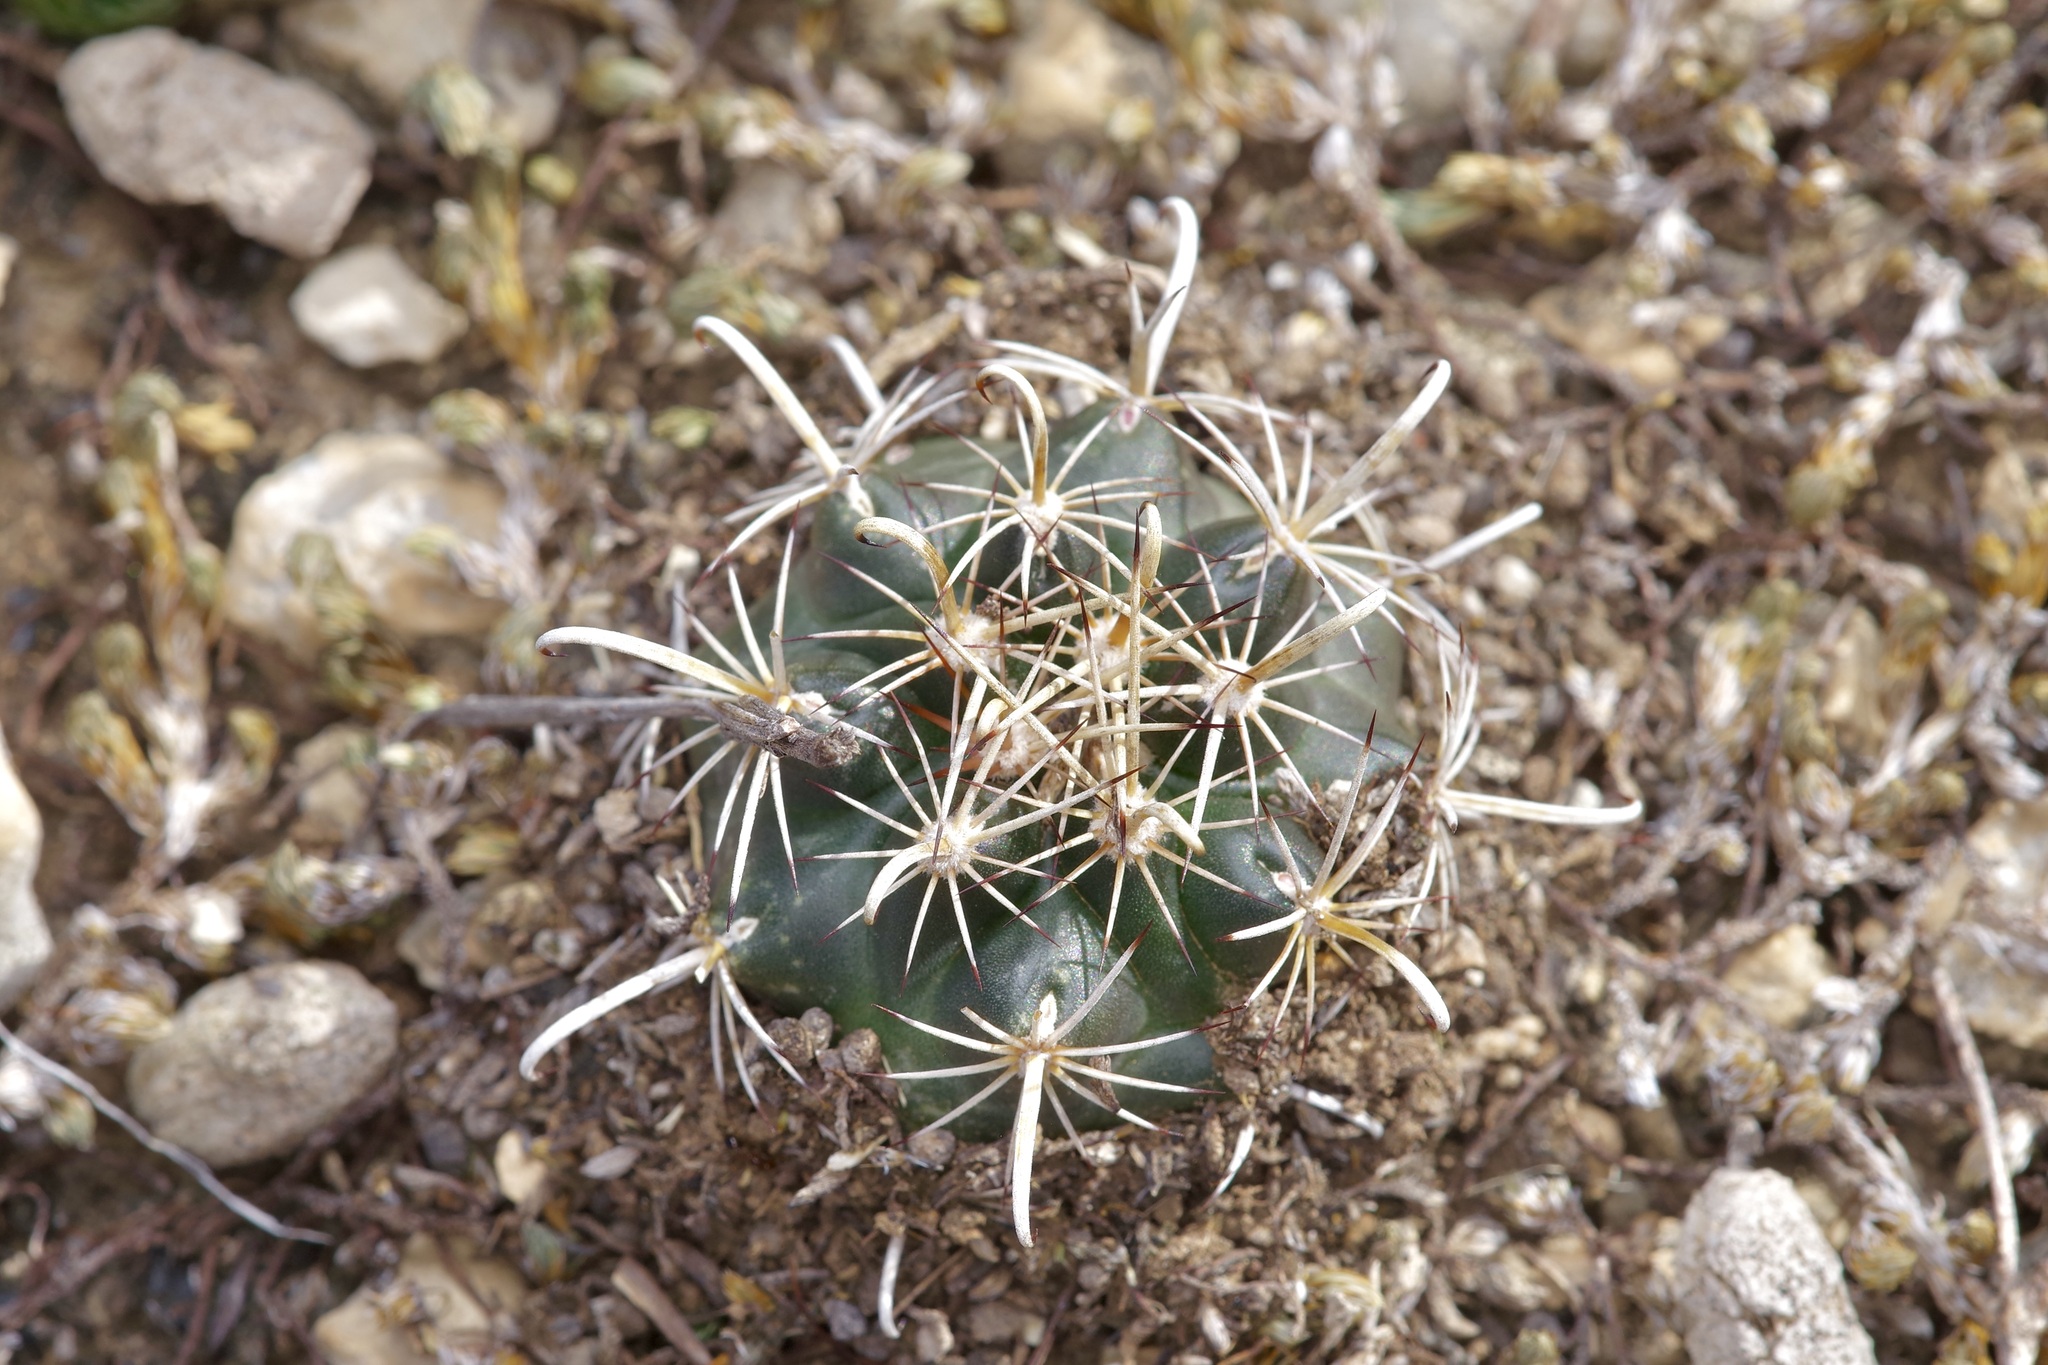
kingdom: Plantae
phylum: Tracheophyta
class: Magnoliopsida
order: Caryophyllales
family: Cactaceae
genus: Sclerocactus
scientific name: Sclerocactus brevihamatus
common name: Engelmann's fishhook cactus
